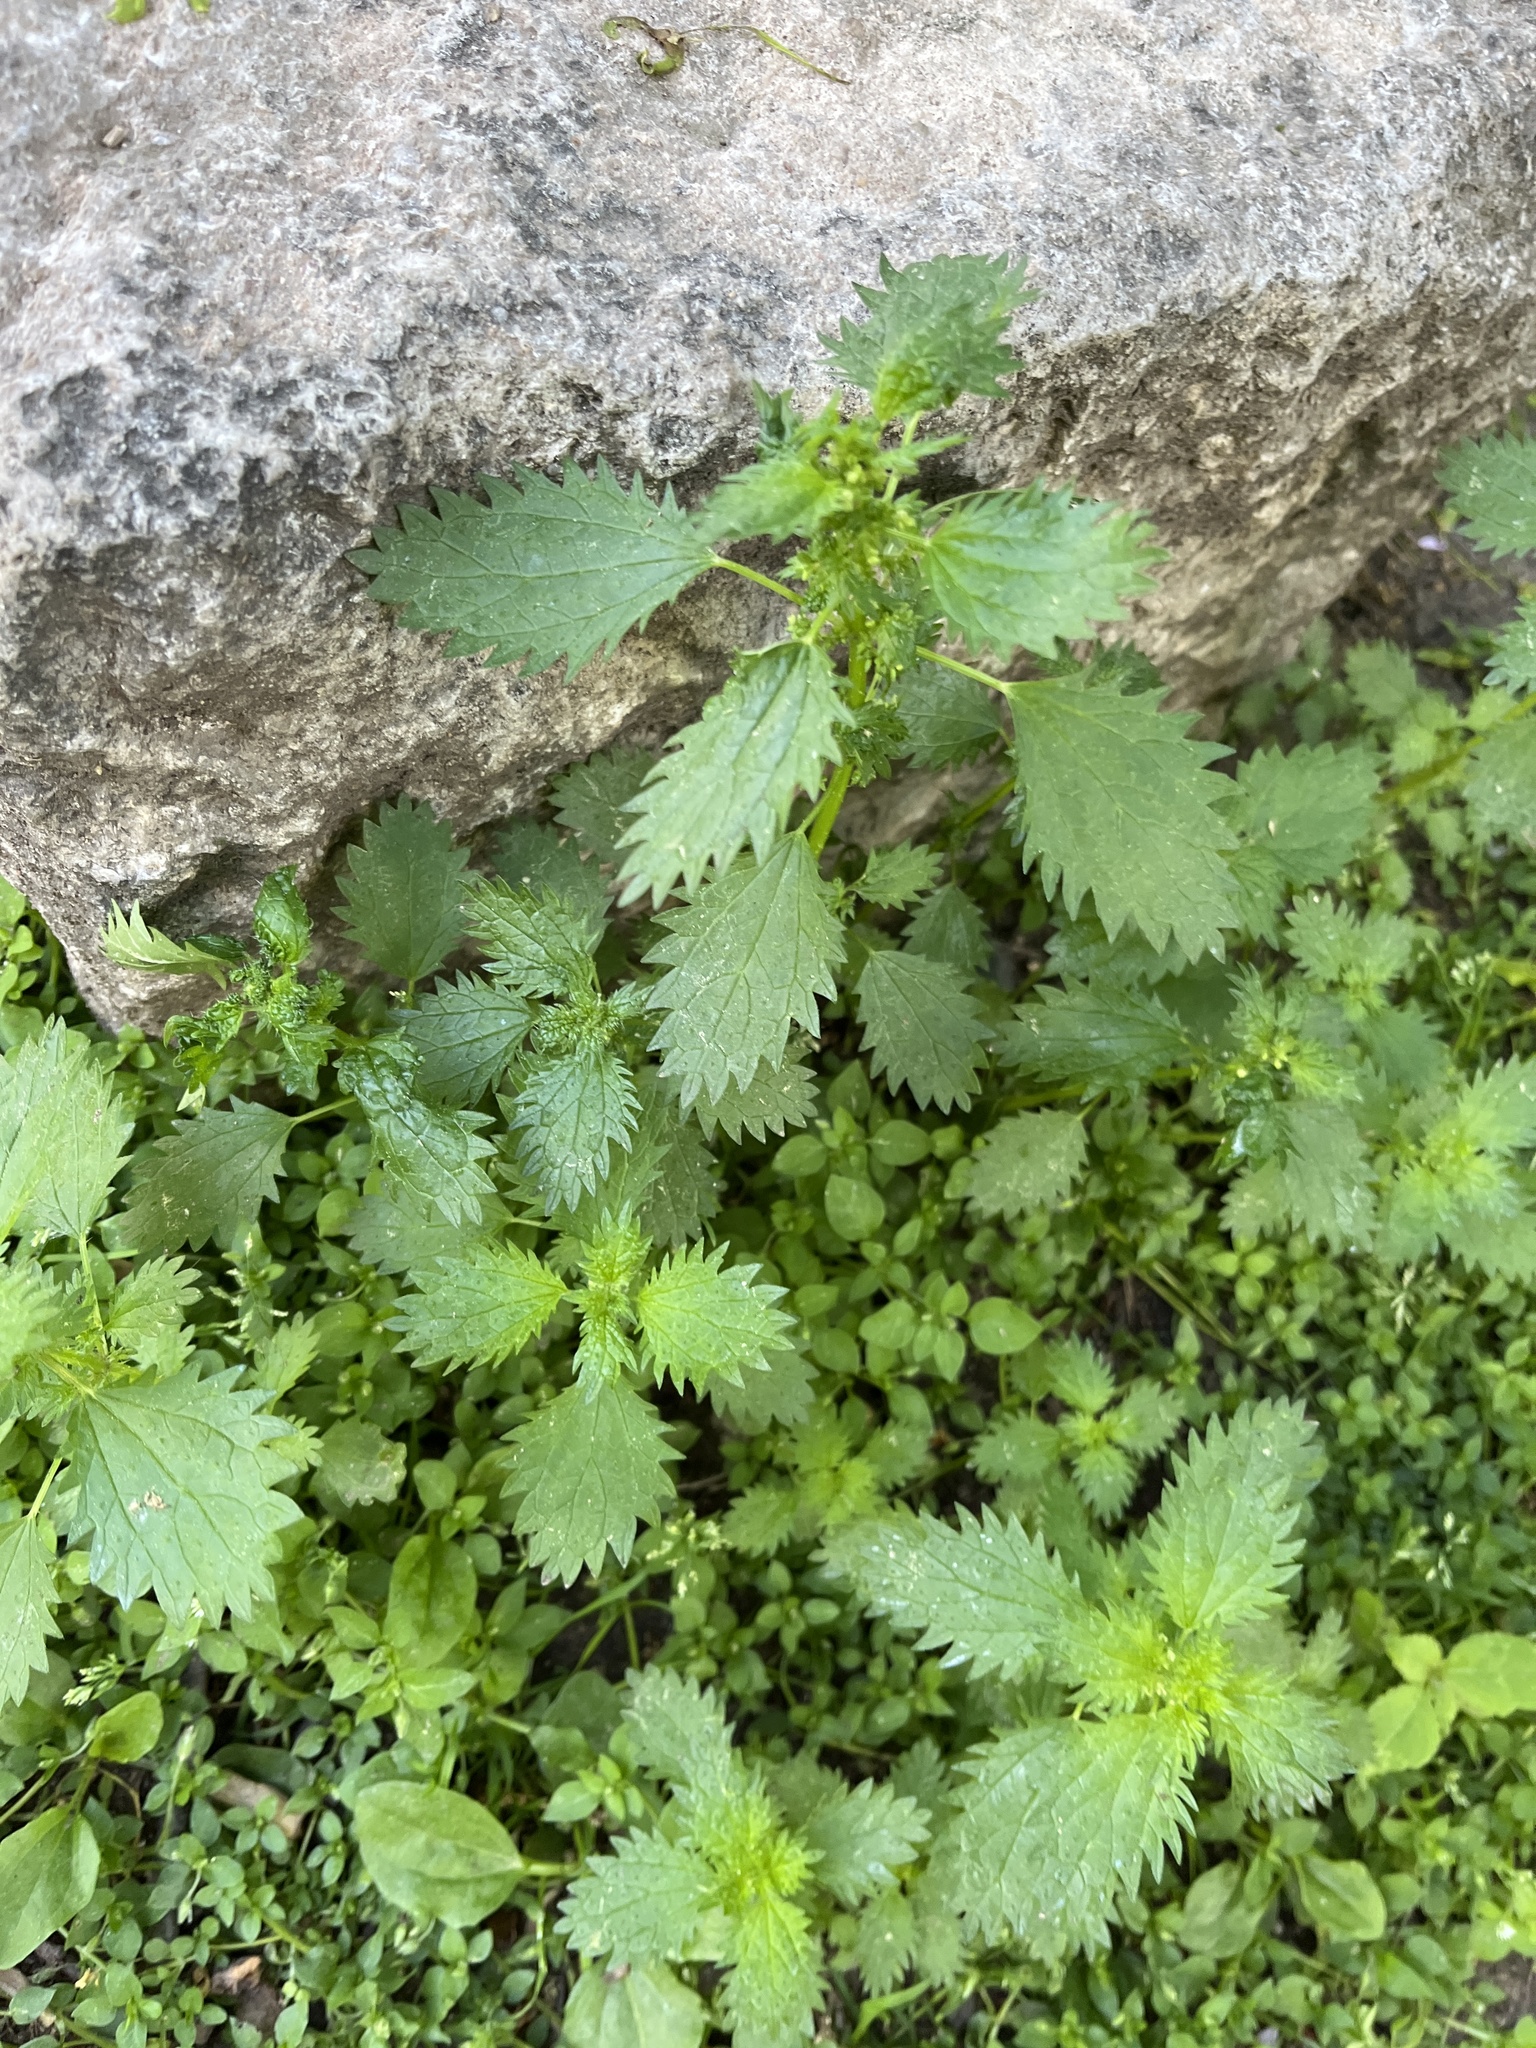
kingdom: Plantae
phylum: Tracheophyta
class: Magnoliopsida
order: Rosales
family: Urticaceae
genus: Urtica
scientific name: Urtica urens
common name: Dwarf nettle
